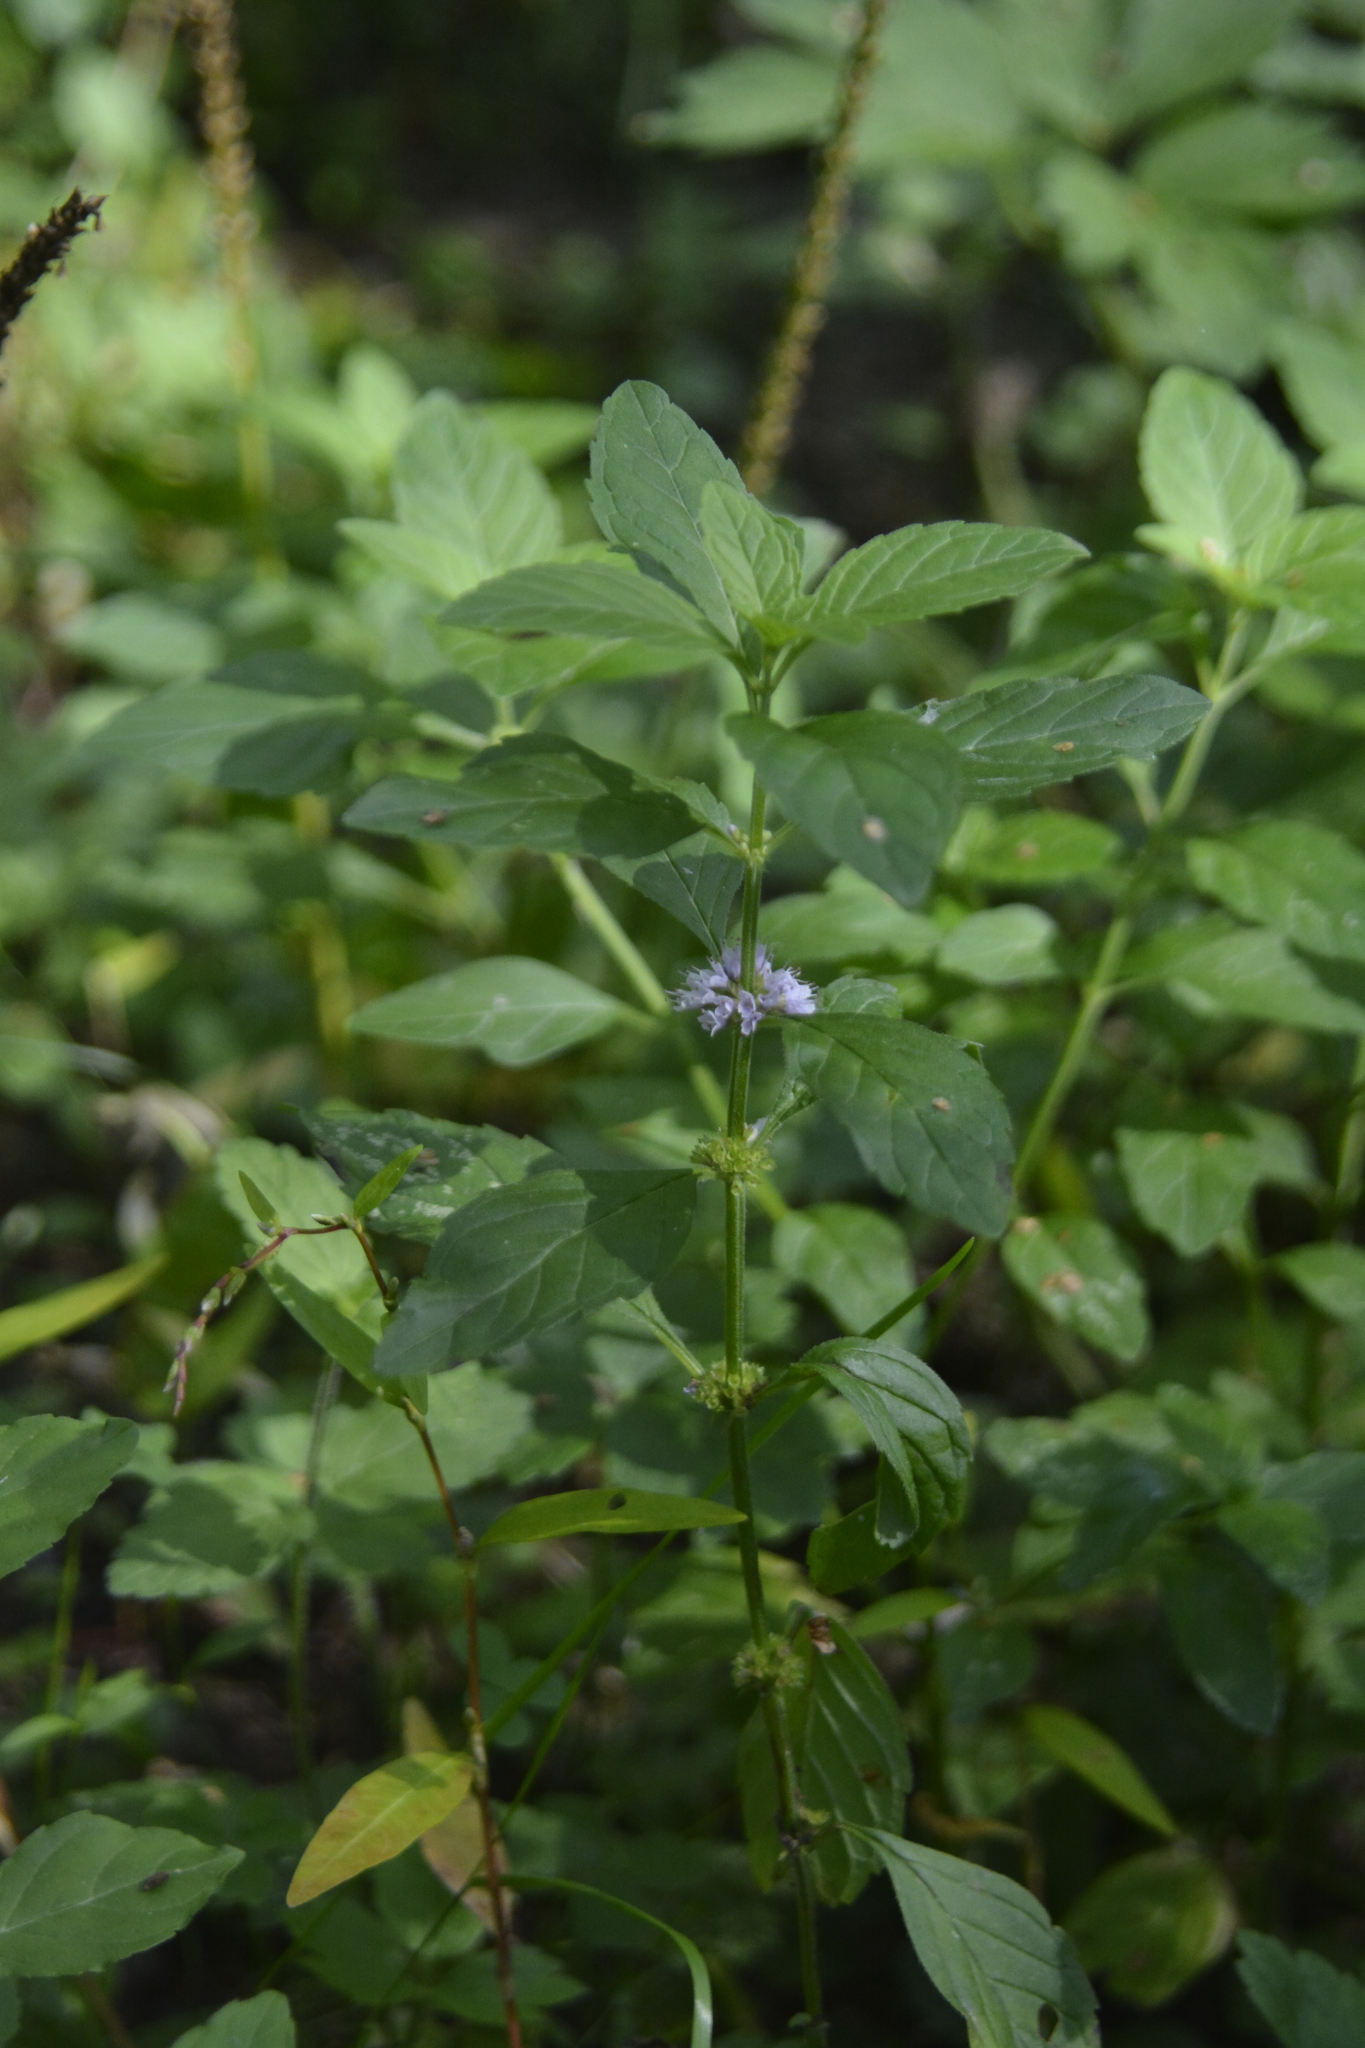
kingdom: Plantae
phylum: Tracheophyta
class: Magnoliopsida
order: Lamiales
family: Lamiaceae
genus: Mentha
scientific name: Mentha arvensis
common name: Corn mint
